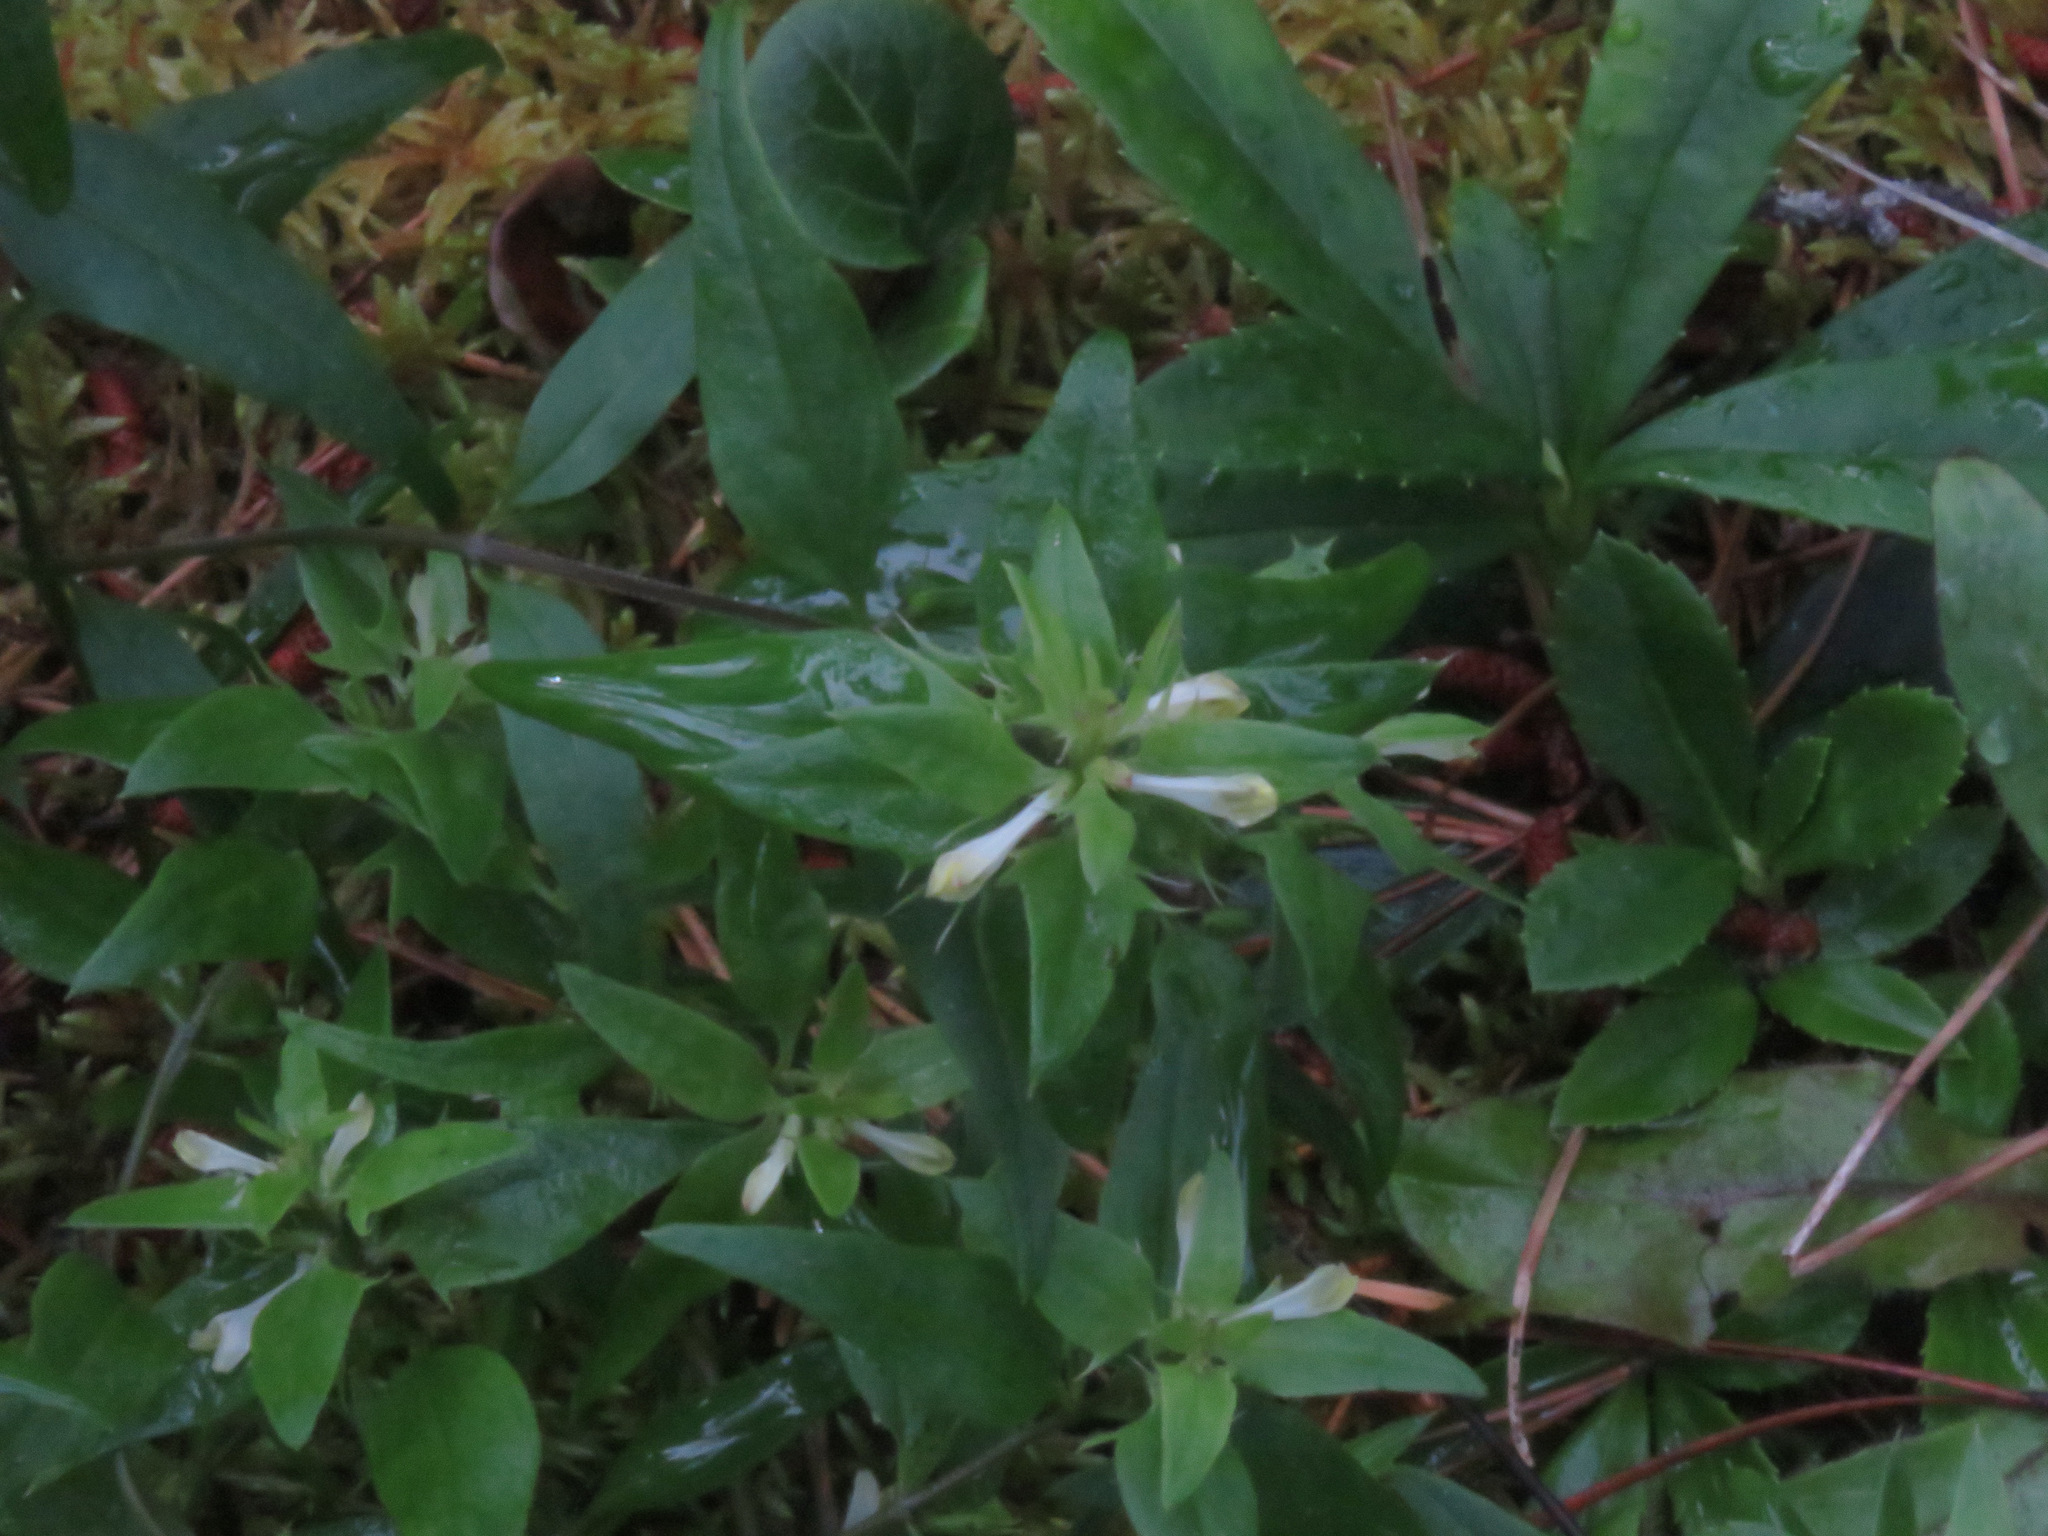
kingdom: Plantae
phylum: Tracheophyta
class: Magnoliopsida
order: Lamiales
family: Orobanchaceae
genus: Melampyrum
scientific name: Melampyrum lineare
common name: American cow-wheat
